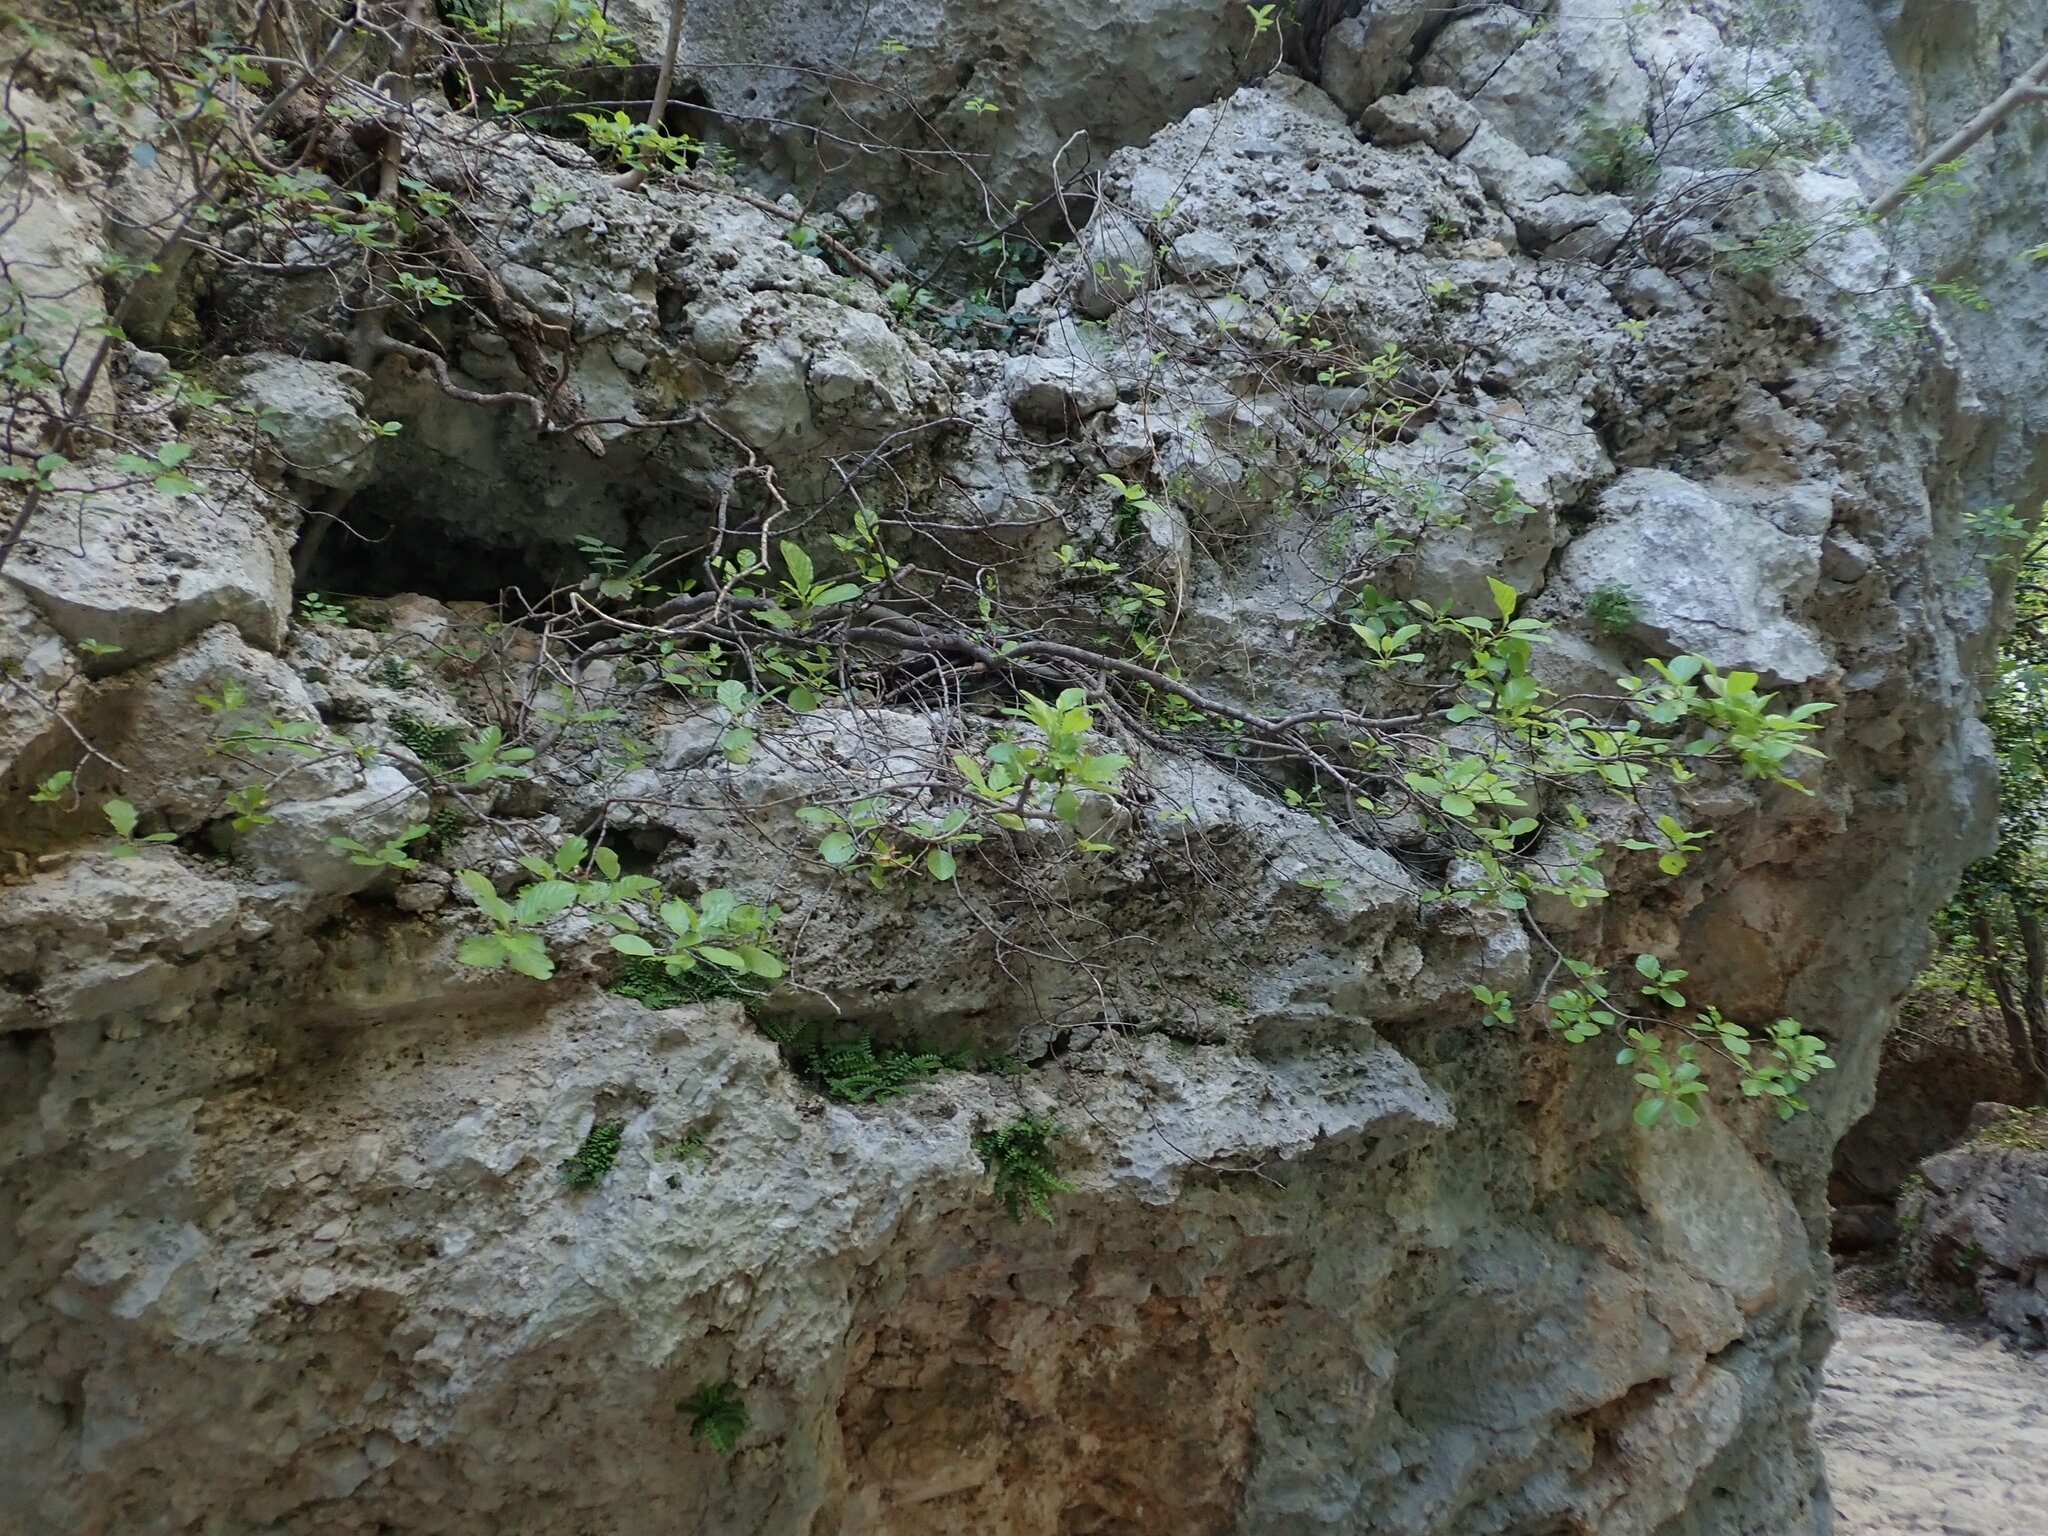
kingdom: Plantae
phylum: Tracheophyta
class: Magnoliopsida
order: Rosales
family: Rhamnaceae
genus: Frangula
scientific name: Frangula rupestris
